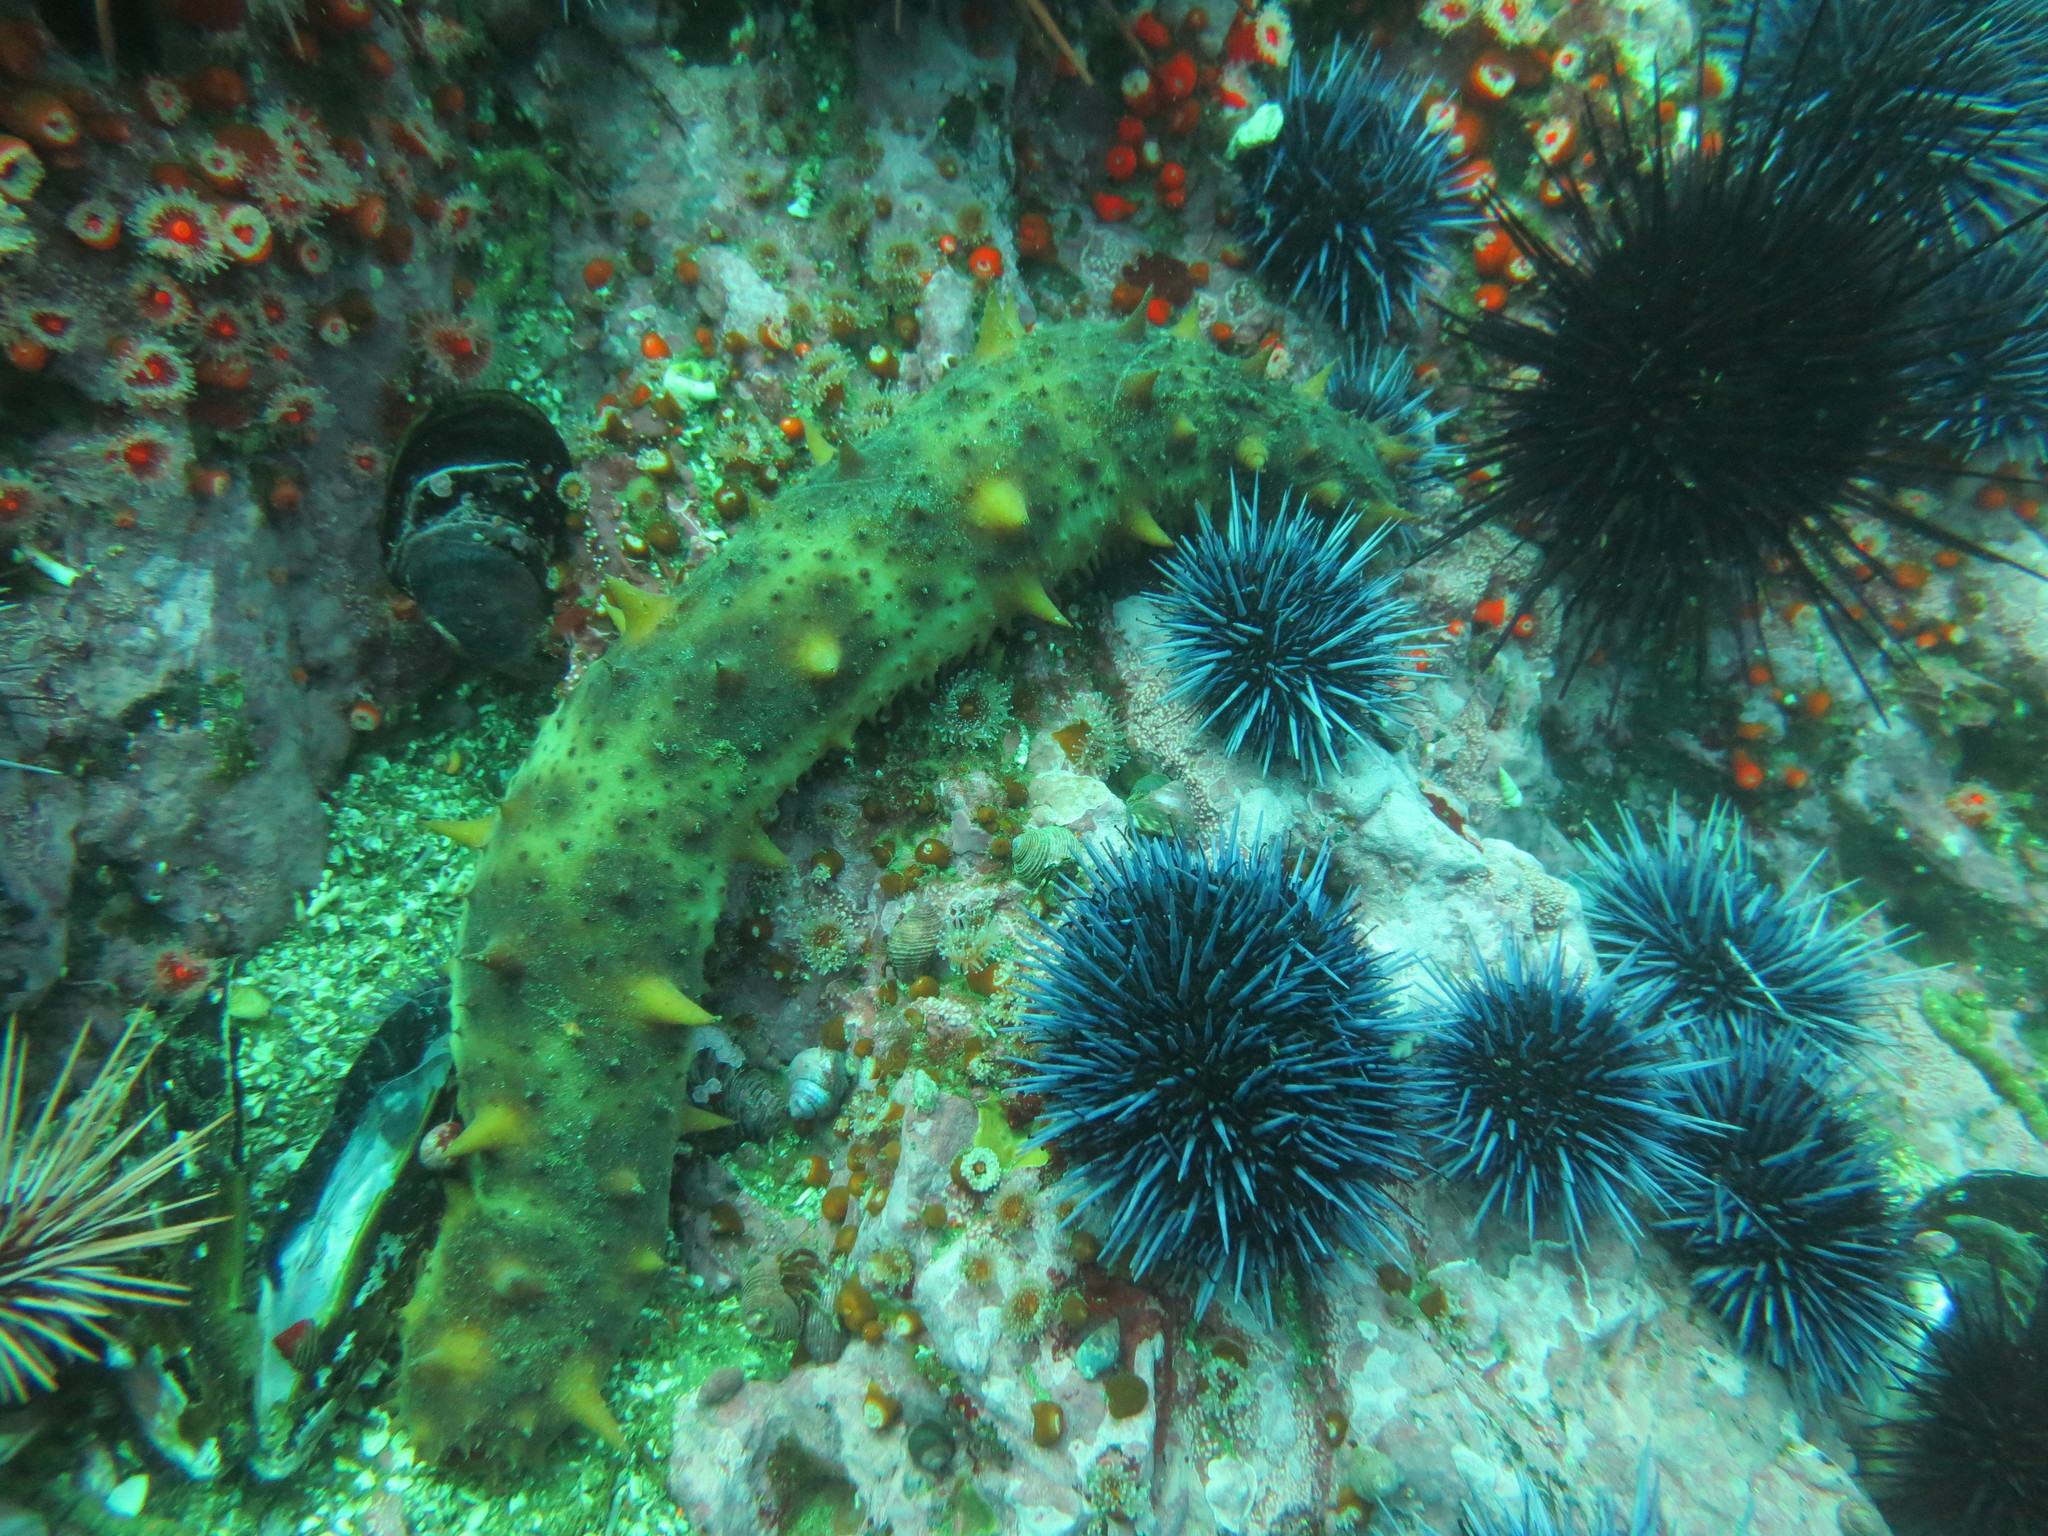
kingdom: Animalia
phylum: Echinodermata
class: Holothuroidea
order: Synallactida
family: Stichopodidae
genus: Apostichopus
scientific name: Apostichopus californicus
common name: California sea cucumber
